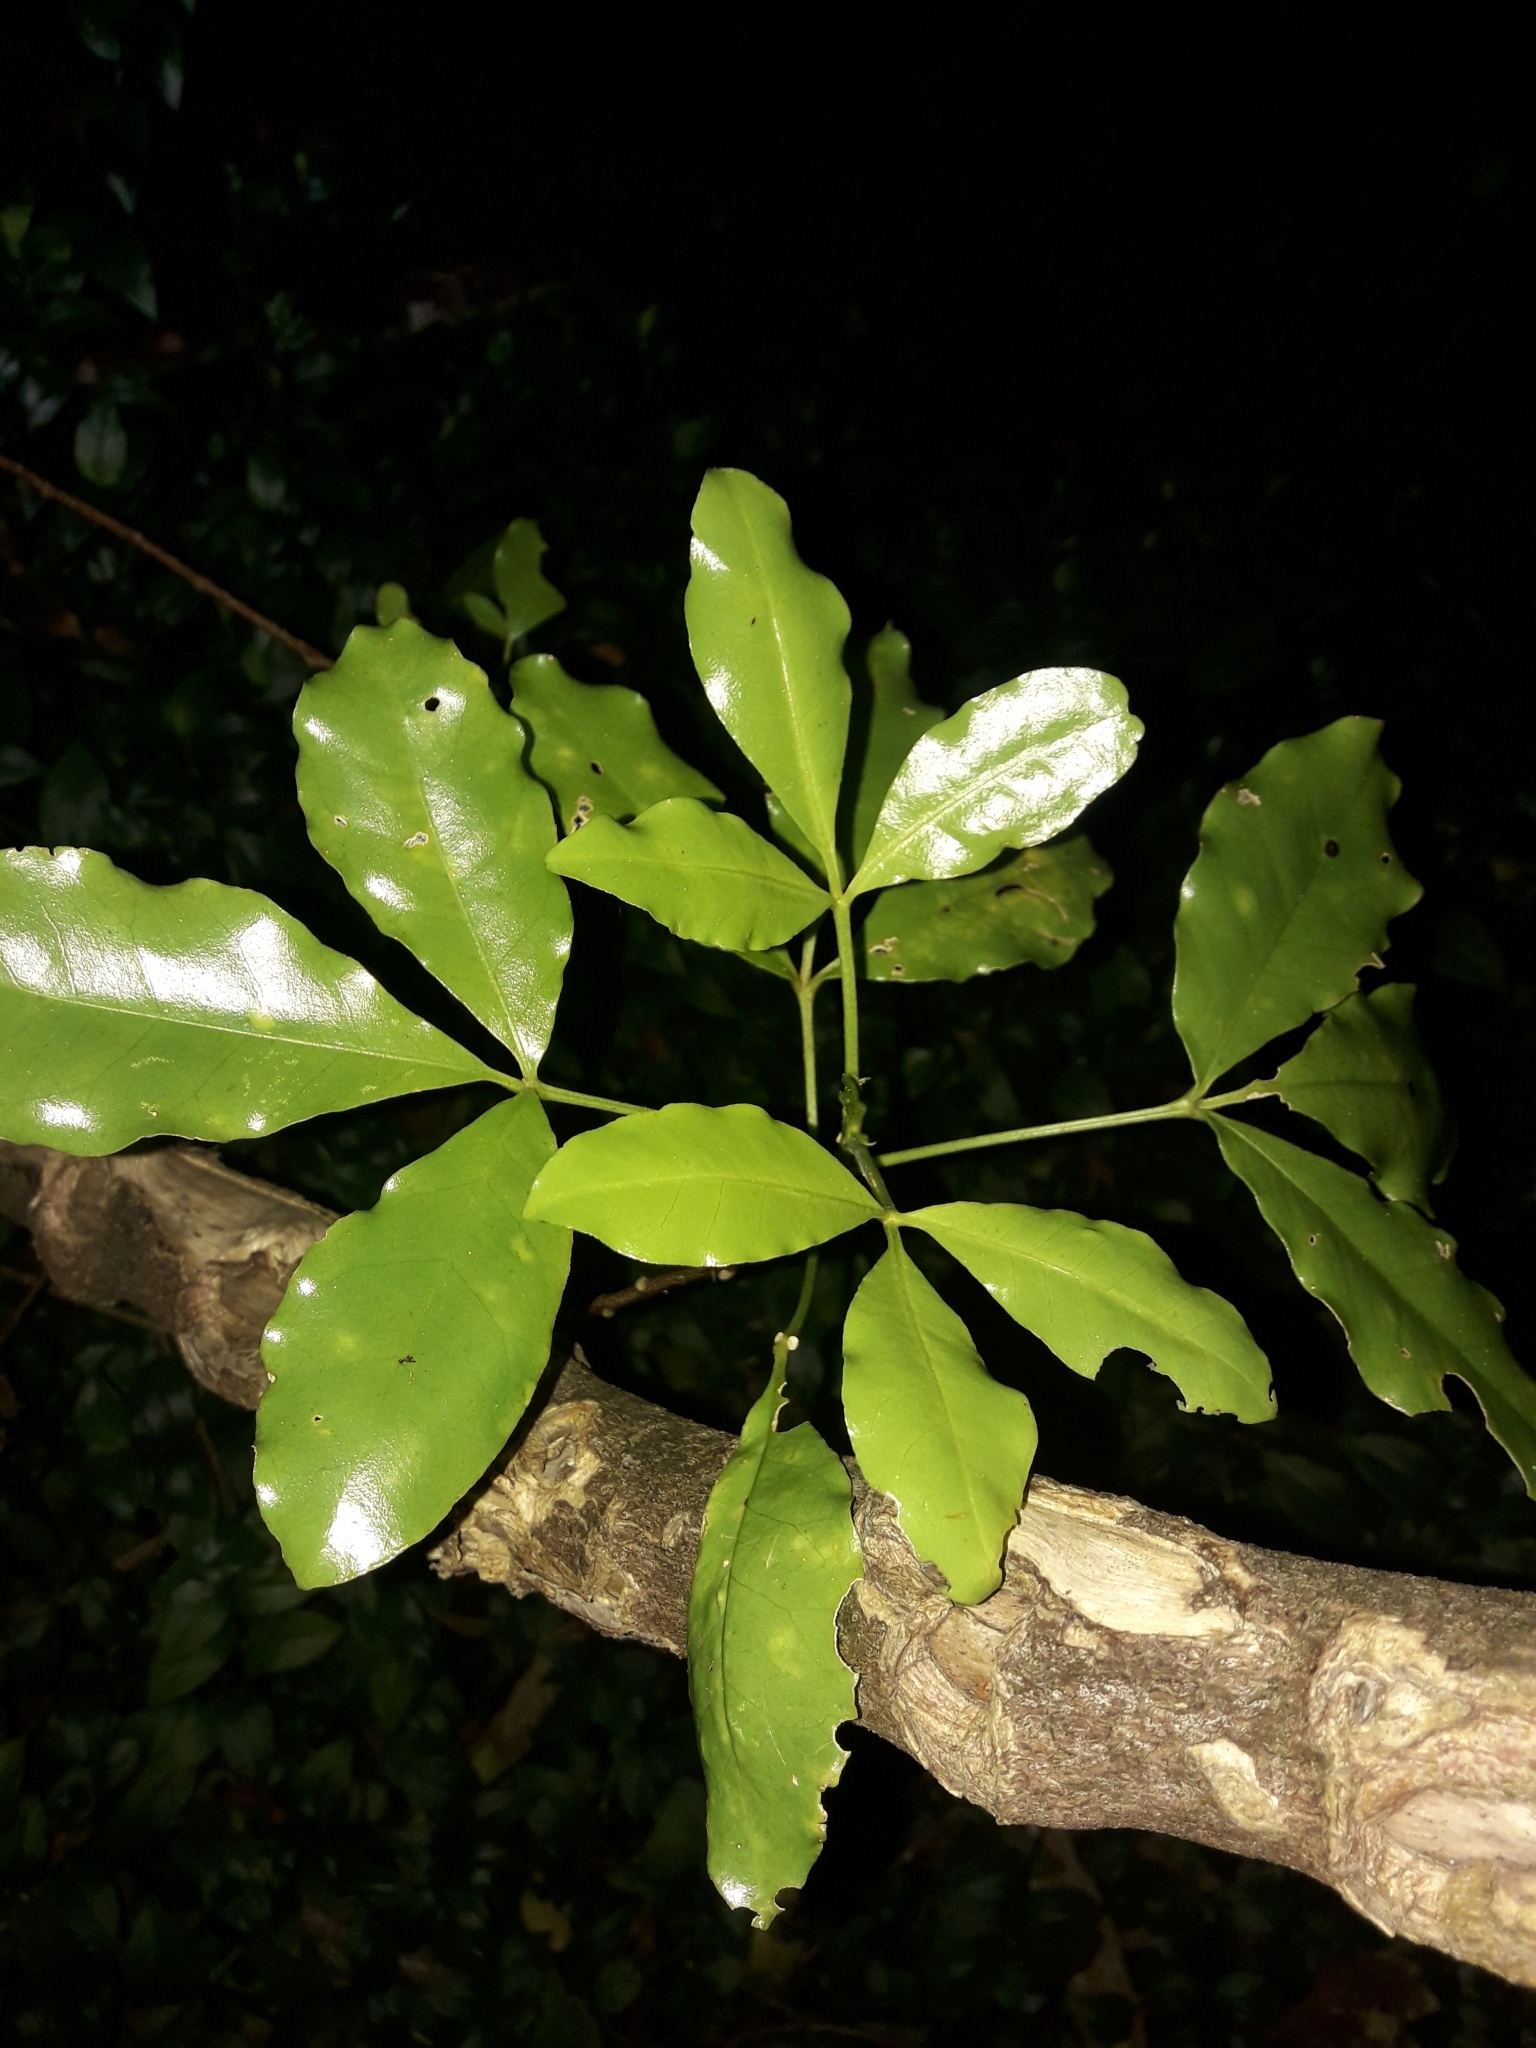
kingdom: Plantae
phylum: Tracheophyta
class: Magnoliopsida
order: Sapindales
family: Rutaceae
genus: Melicope
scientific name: Melicope ternata
